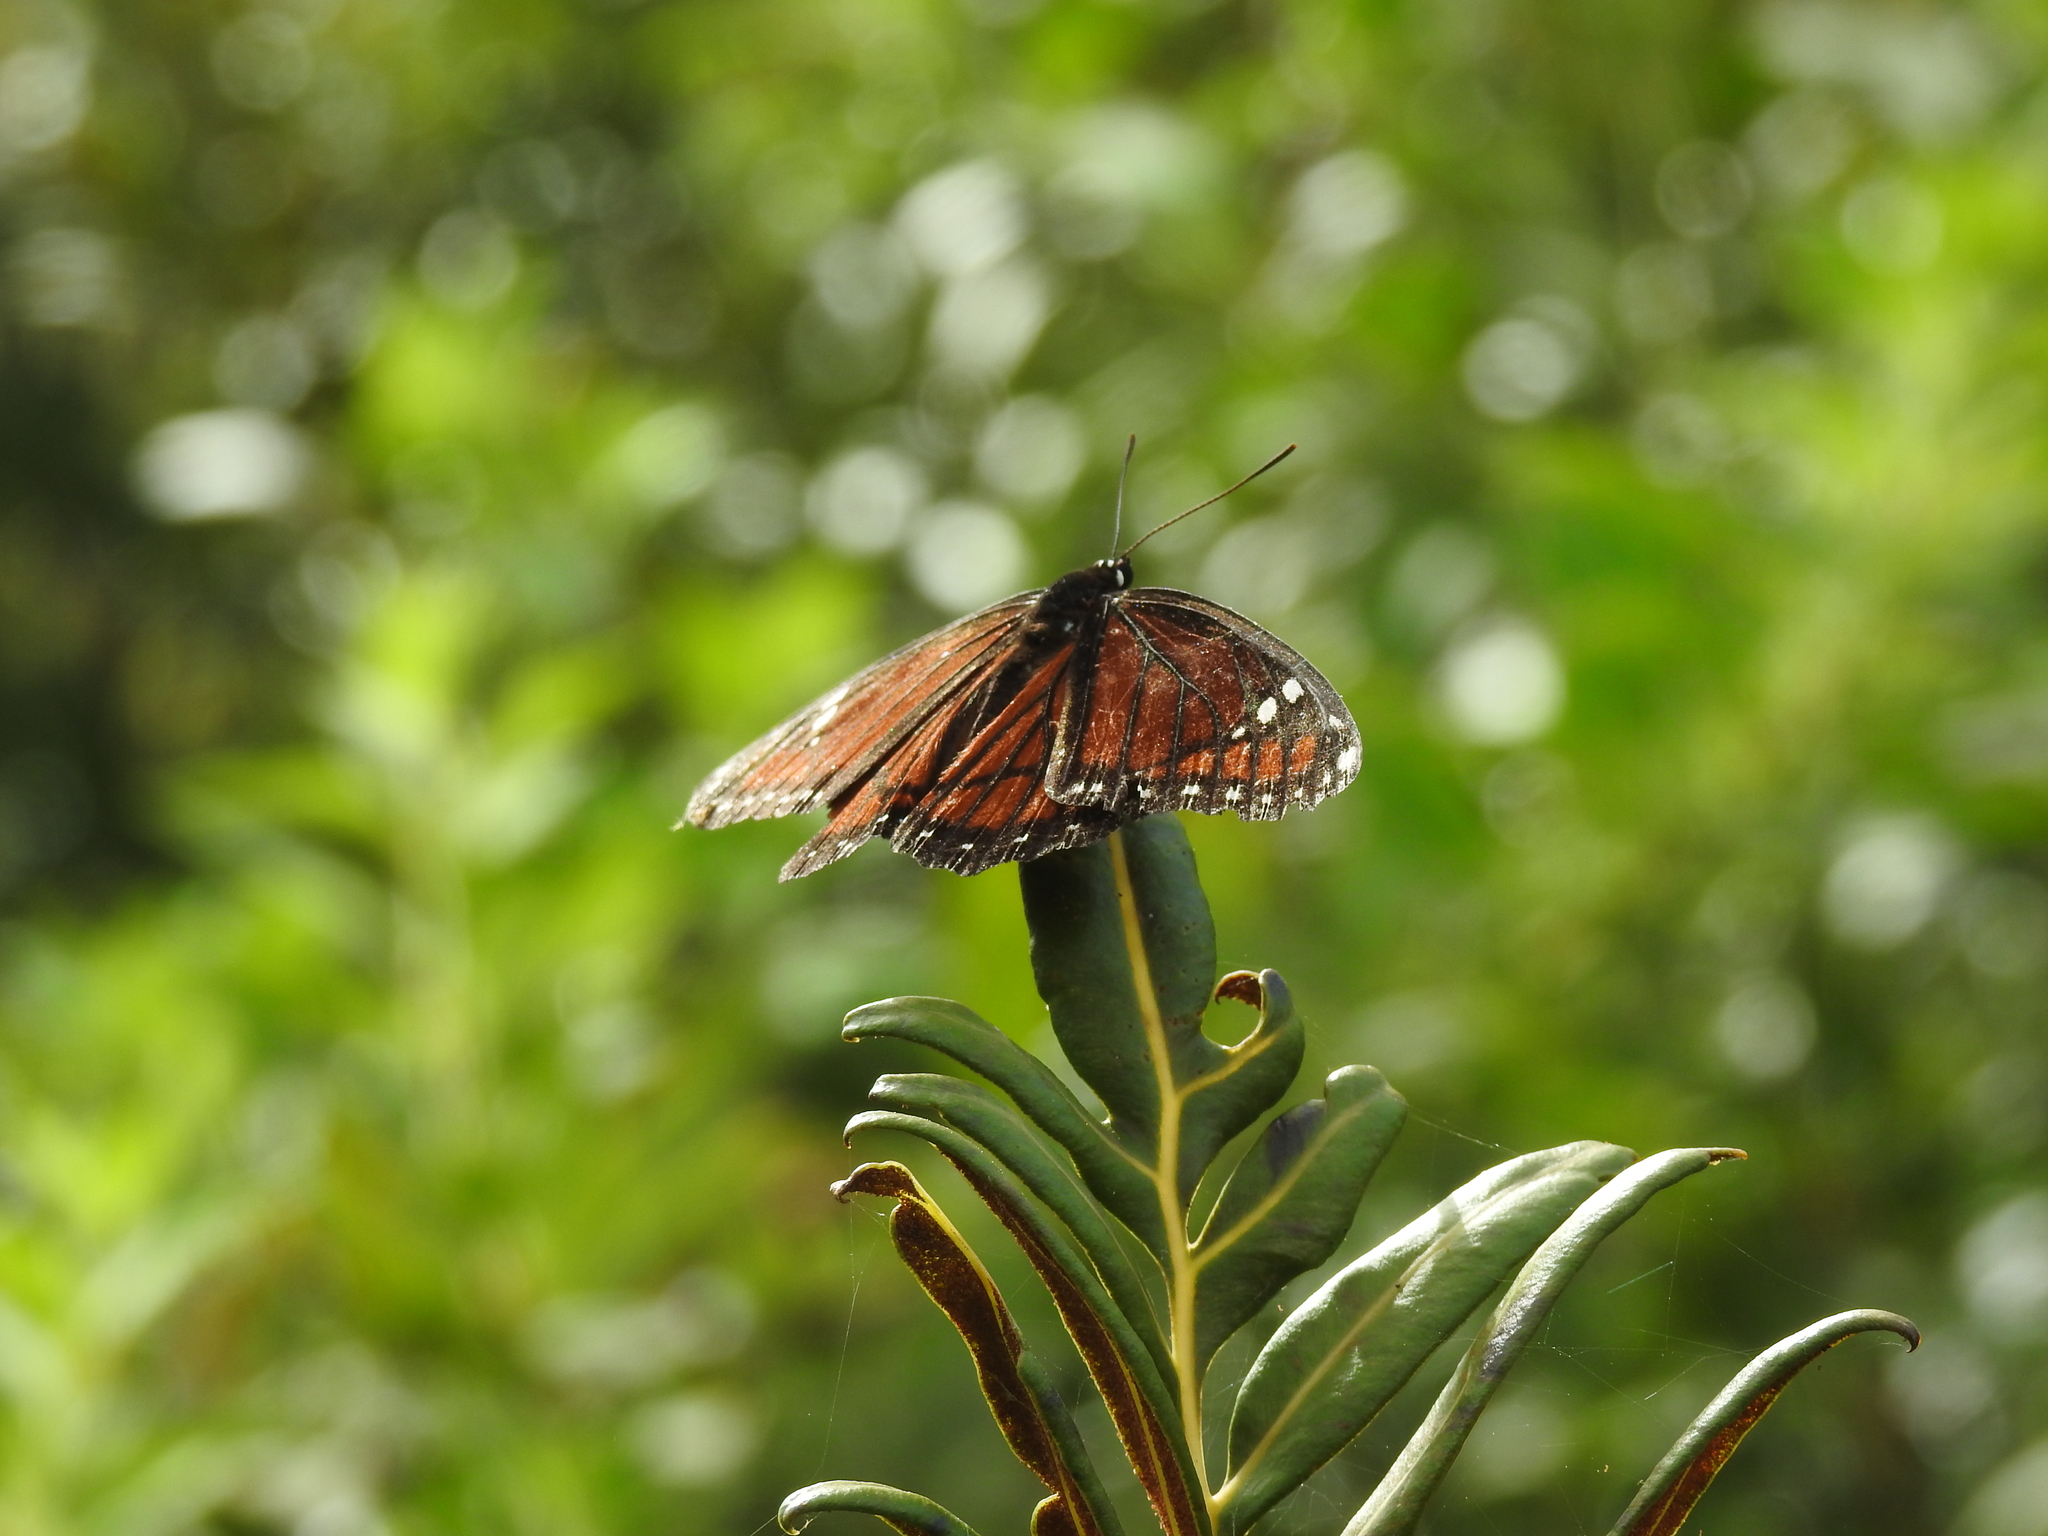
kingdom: Animalia
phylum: Arthropoda
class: Insecta
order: Lepidoptera
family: Nymphalidae
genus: Limenitis
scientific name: Limenitis archippus
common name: Viceroy
